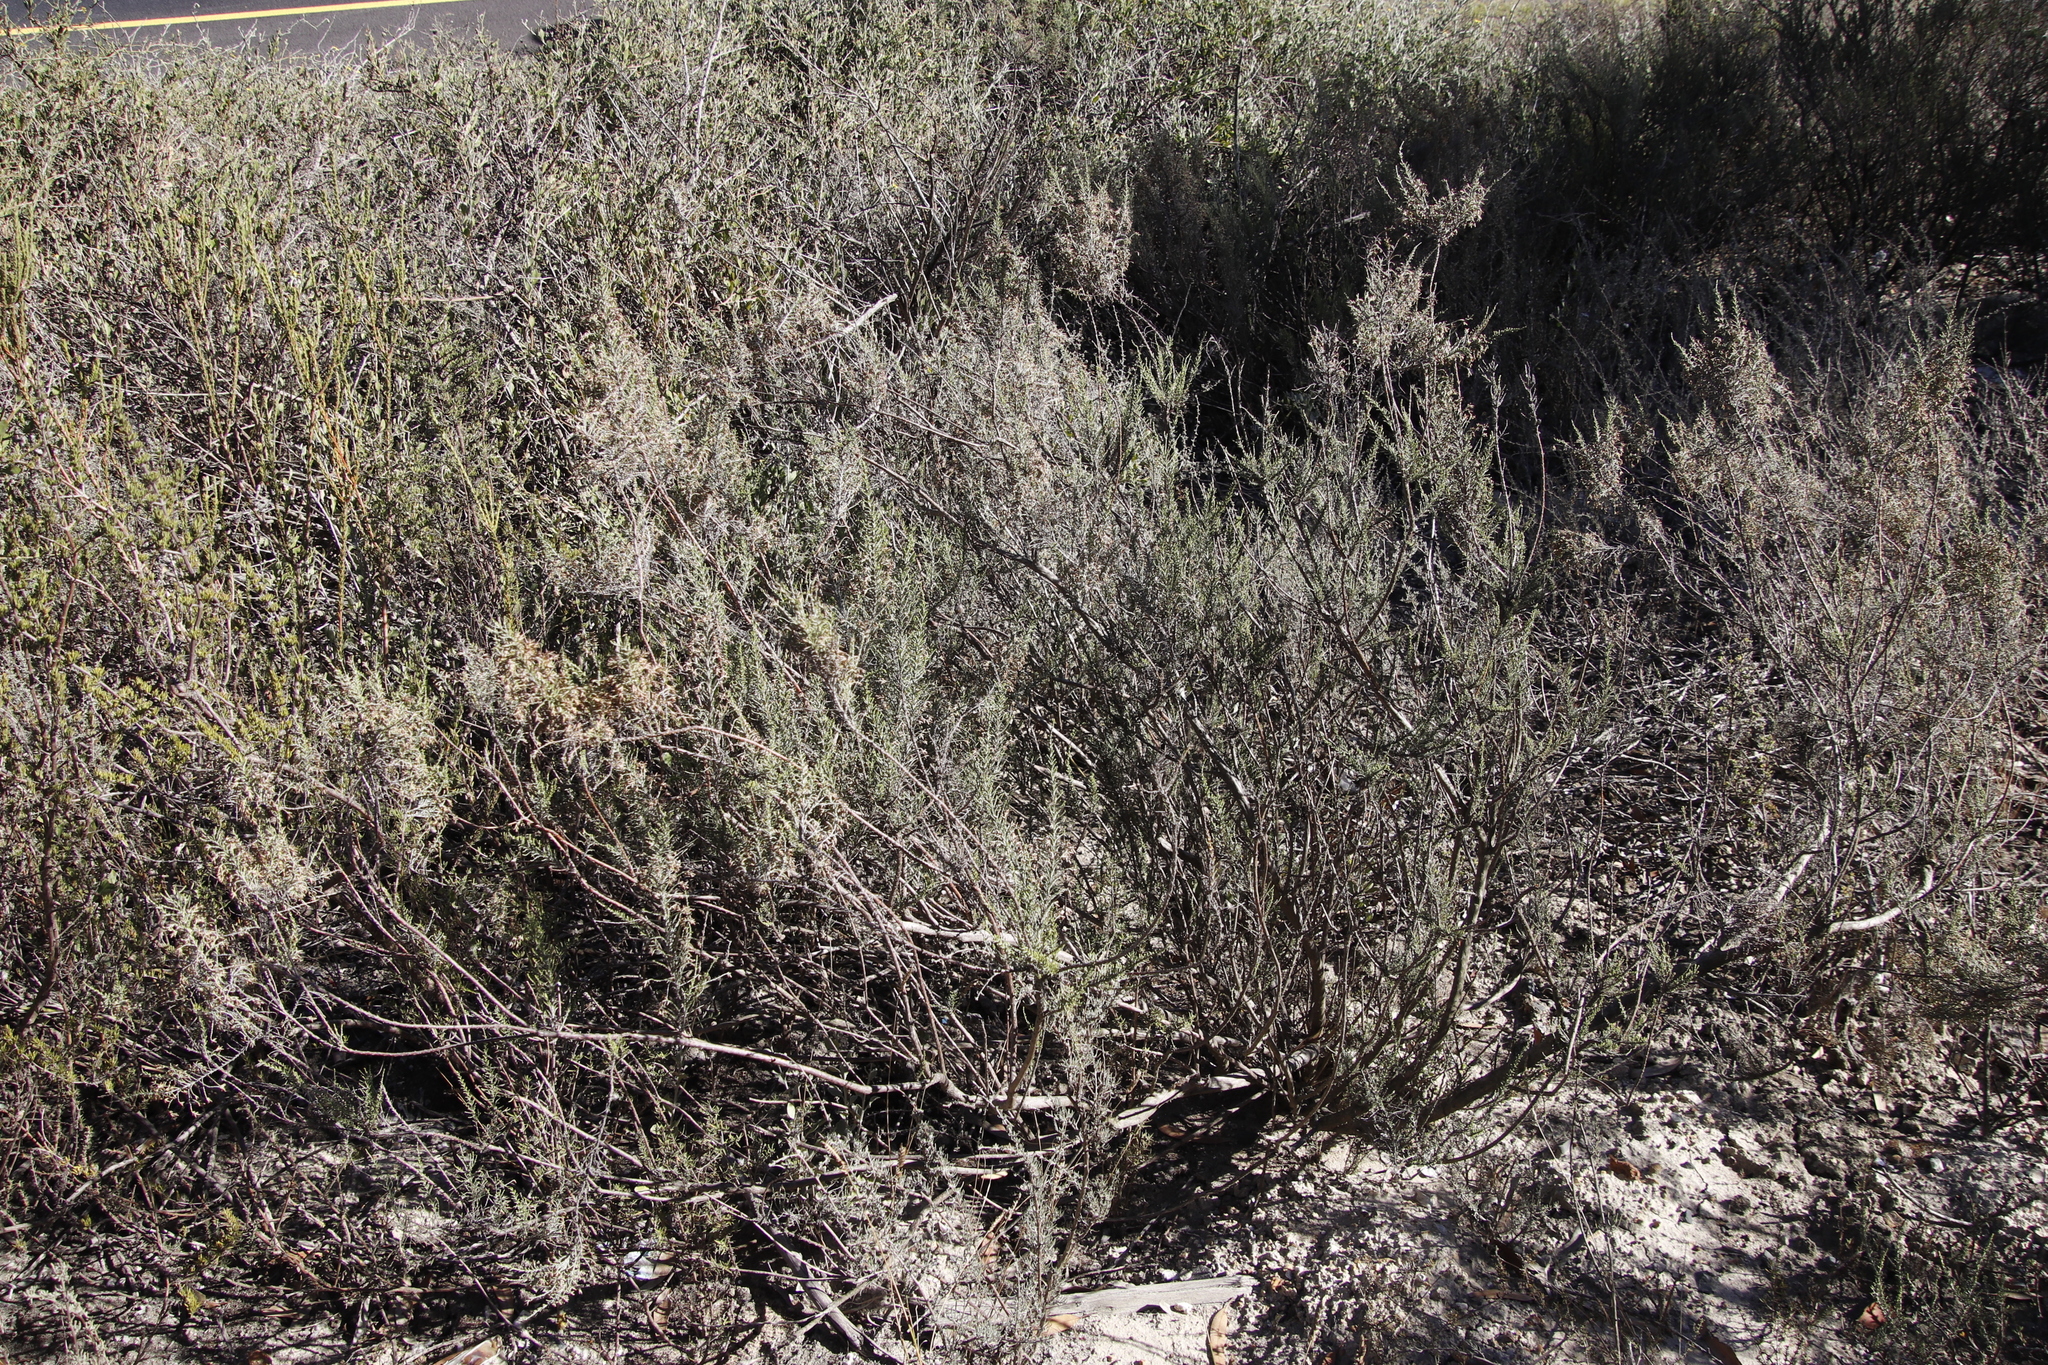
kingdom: Plantae
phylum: Tracheophyta
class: Magnoliopsida
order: Asterales
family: Asteraceae
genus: Dicerothamnus
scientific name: Dicerothamnus rhinocerotis
